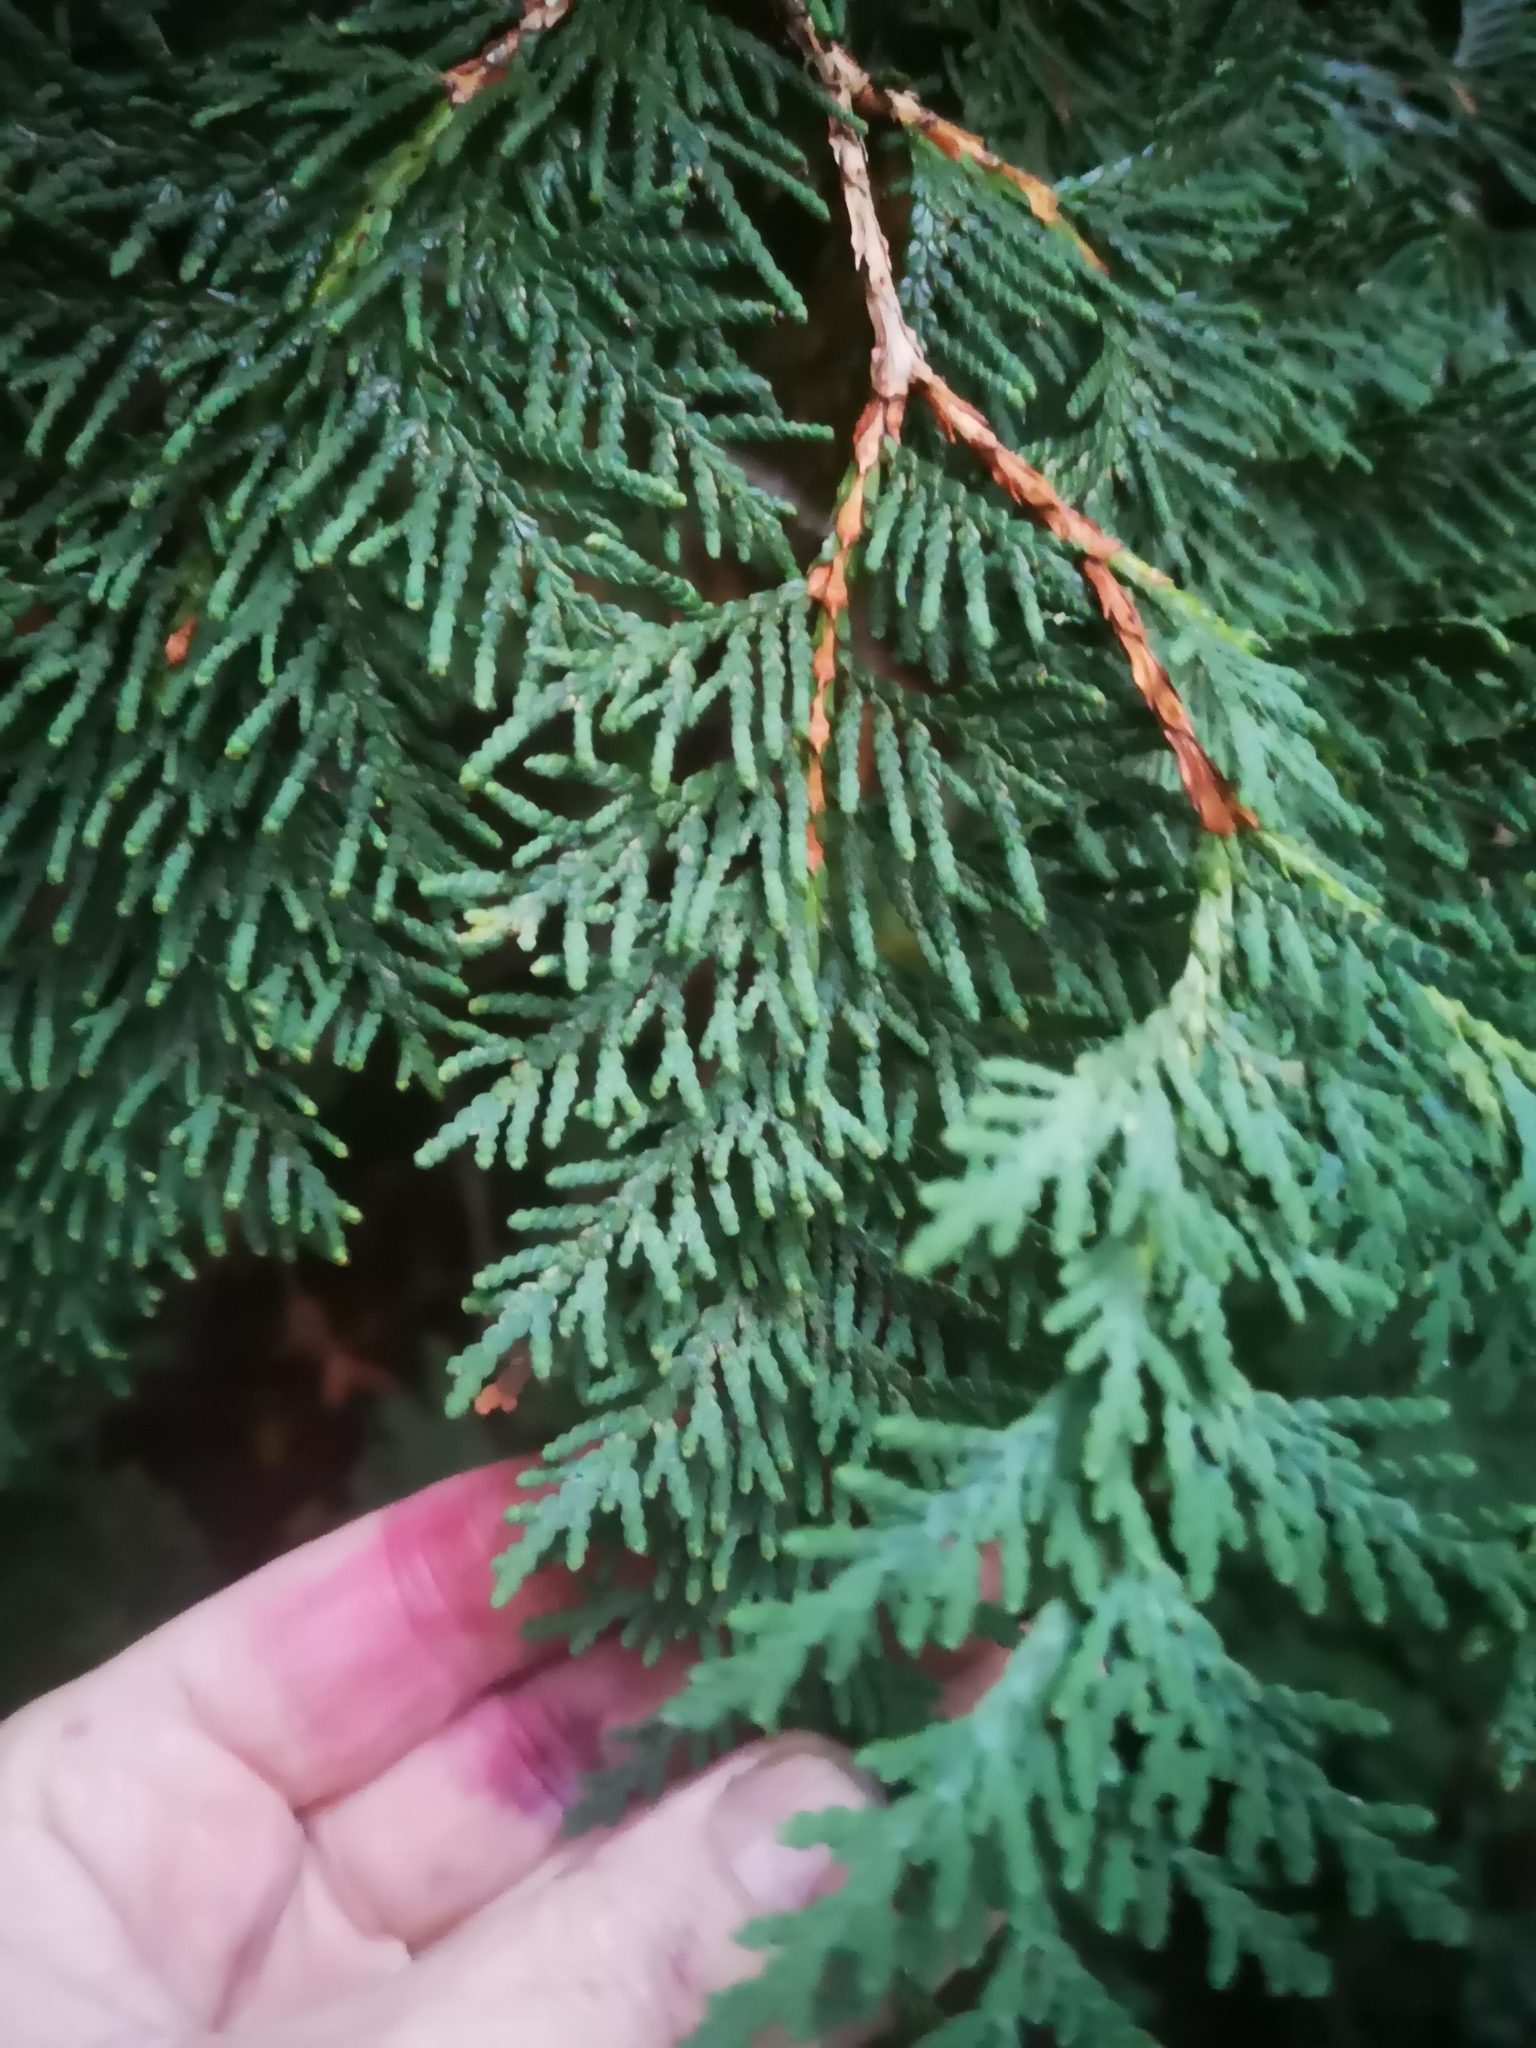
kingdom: Plantae
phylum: Tracheophyta
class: Pinopsida
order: Pinales
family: Cupressaceae
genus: Thuja
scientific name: Thuja occidentalis
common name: Northern white-cedar
